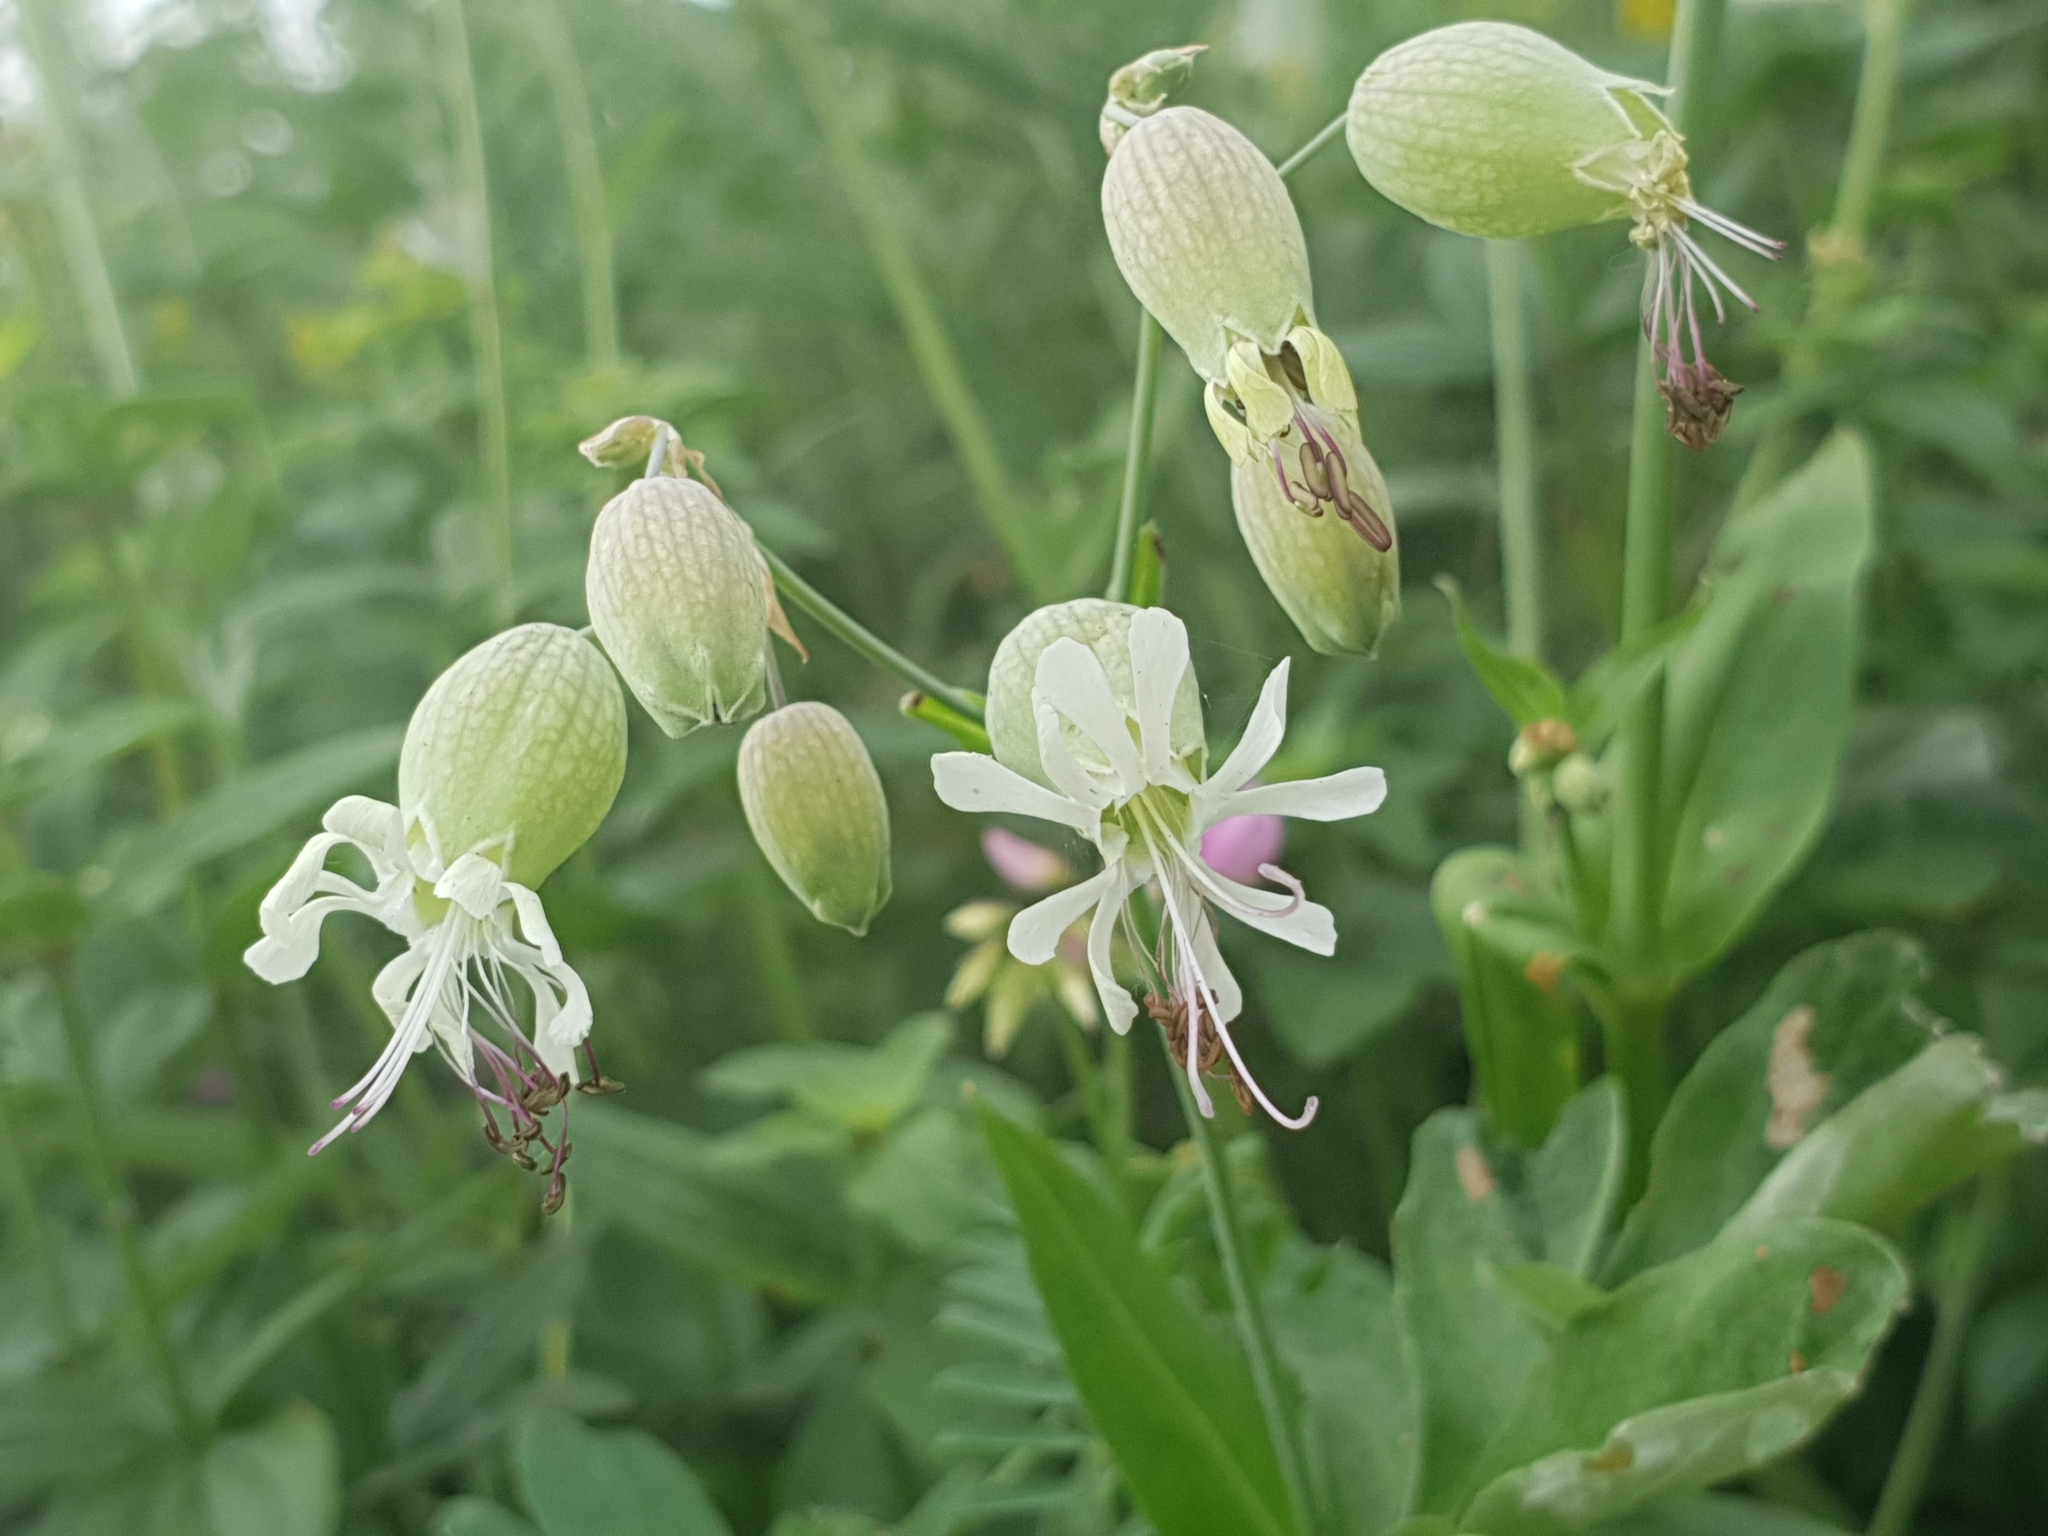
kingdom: Plantae
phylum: Tracheophyta
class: Magnoliopsida
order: Caryophyllales
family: Caryophyllaceae
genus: Silene
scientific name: Silene vulgaris
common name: Bladder campion
